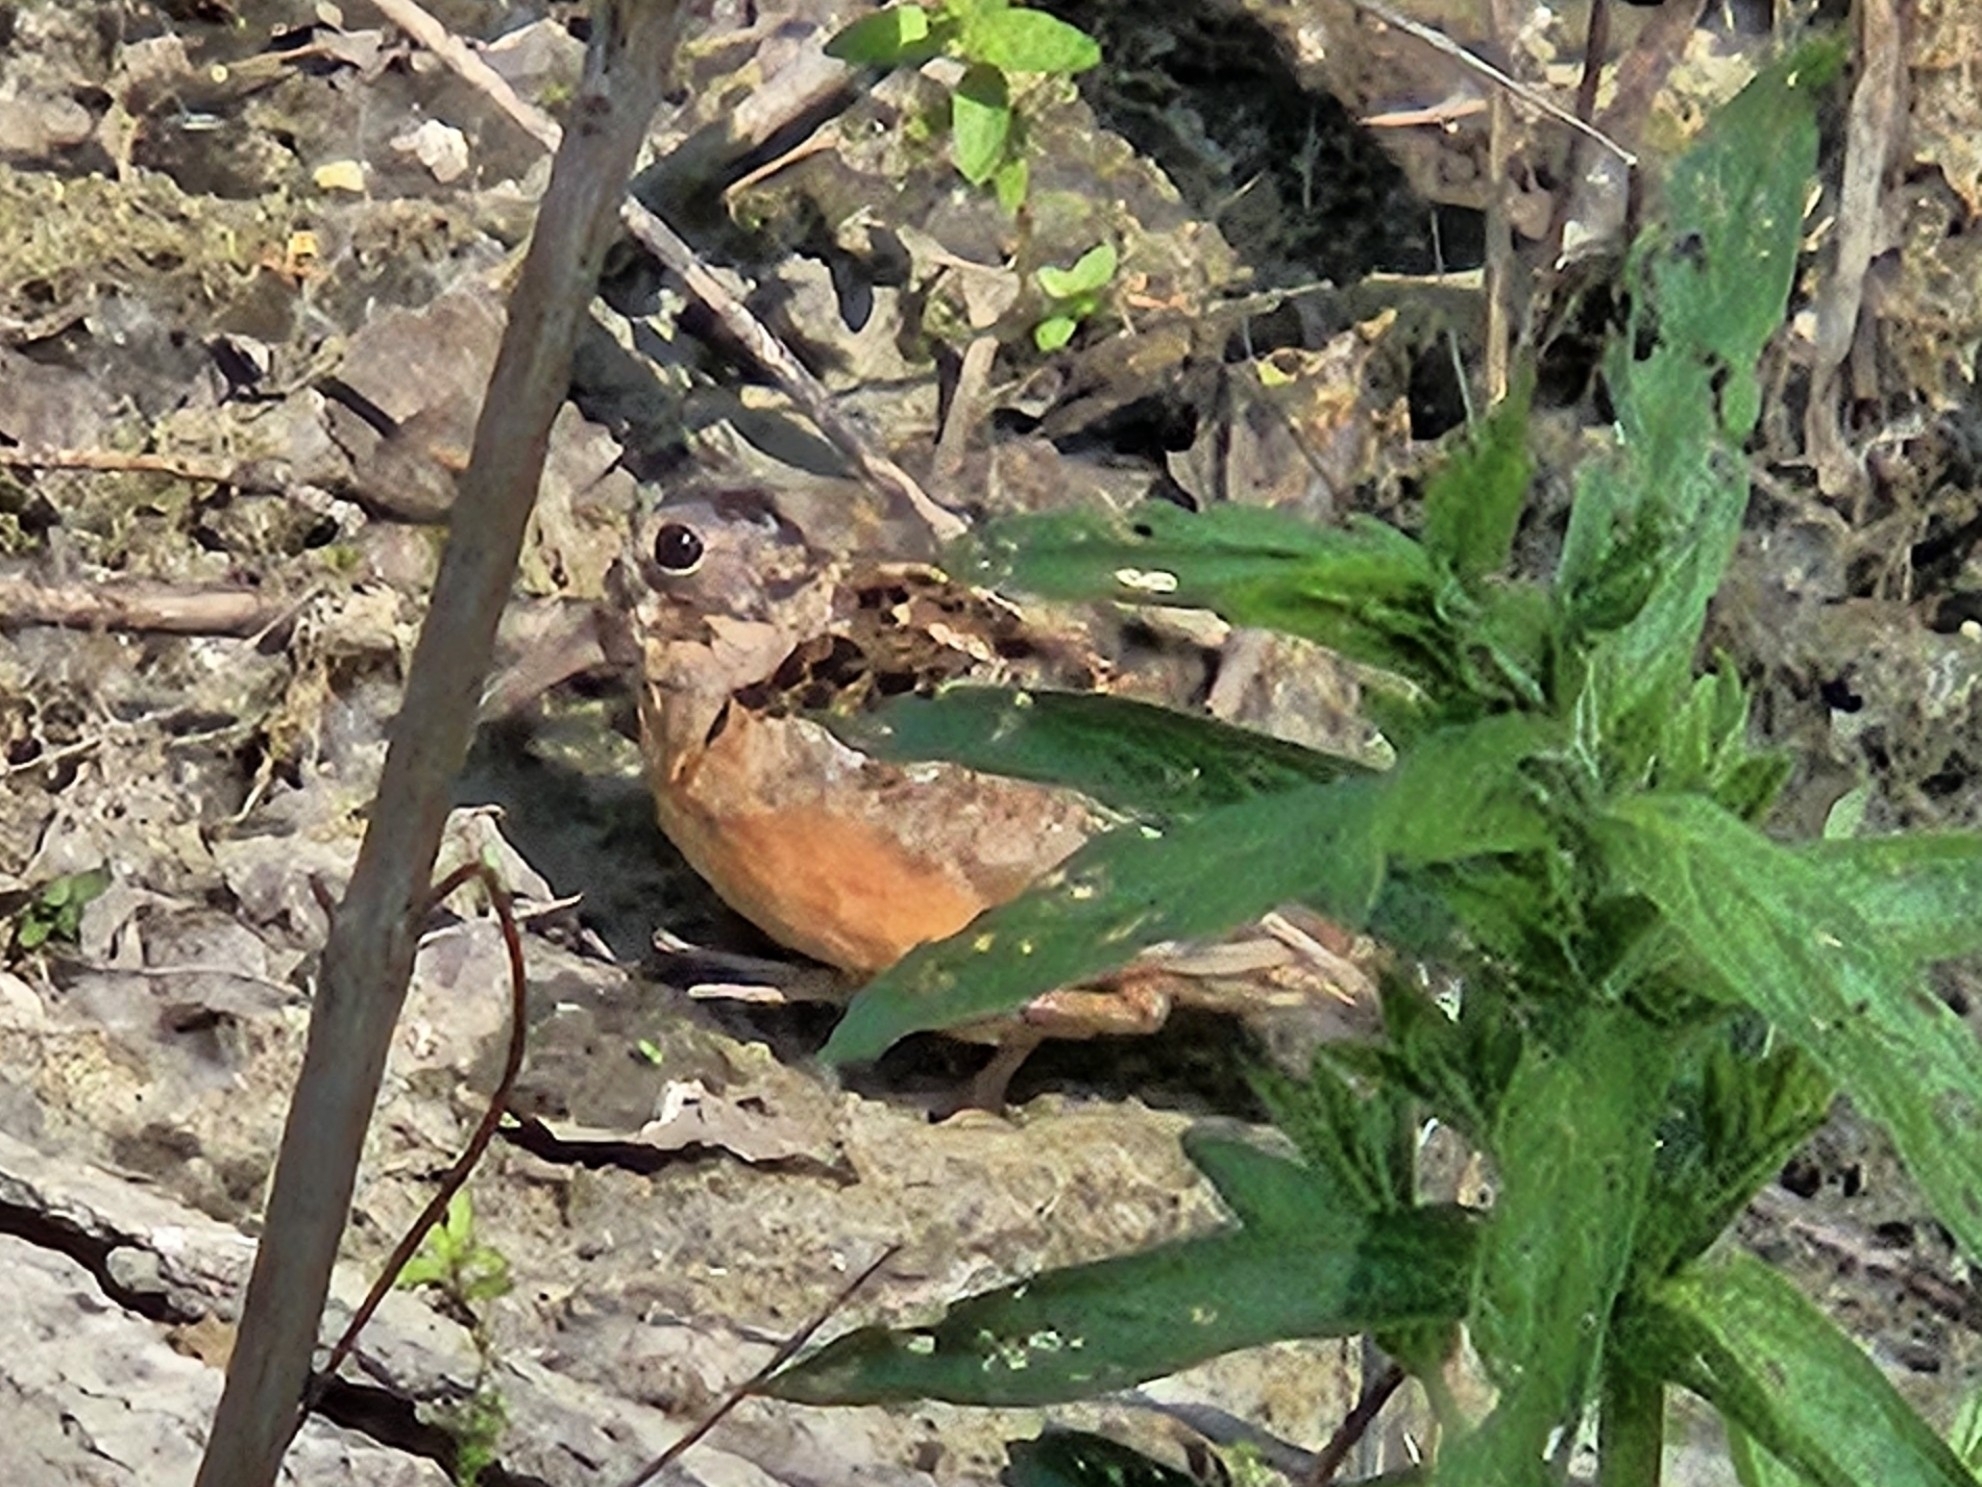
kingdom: Animalia
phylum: Chordata
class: Aves
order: Charadriiformes
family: Scolopacidae
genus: Scolopax
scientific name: Scolopax minor
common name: American woodcock
